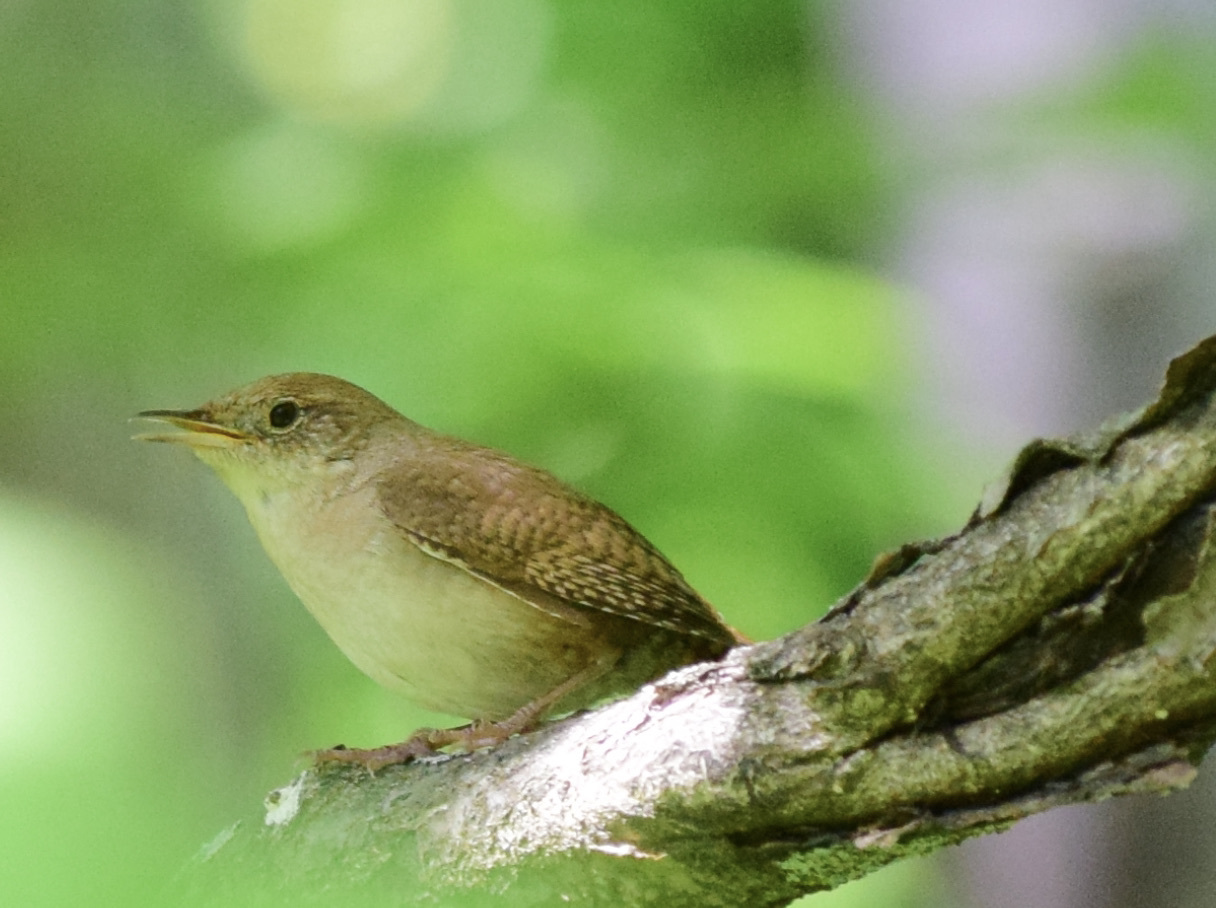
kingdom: Animalia
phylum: Chordata
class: Aves
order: Passeriformes
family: Troglodytidae
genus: Troglodytes
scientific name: Troglodytes aedon
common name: House wren
